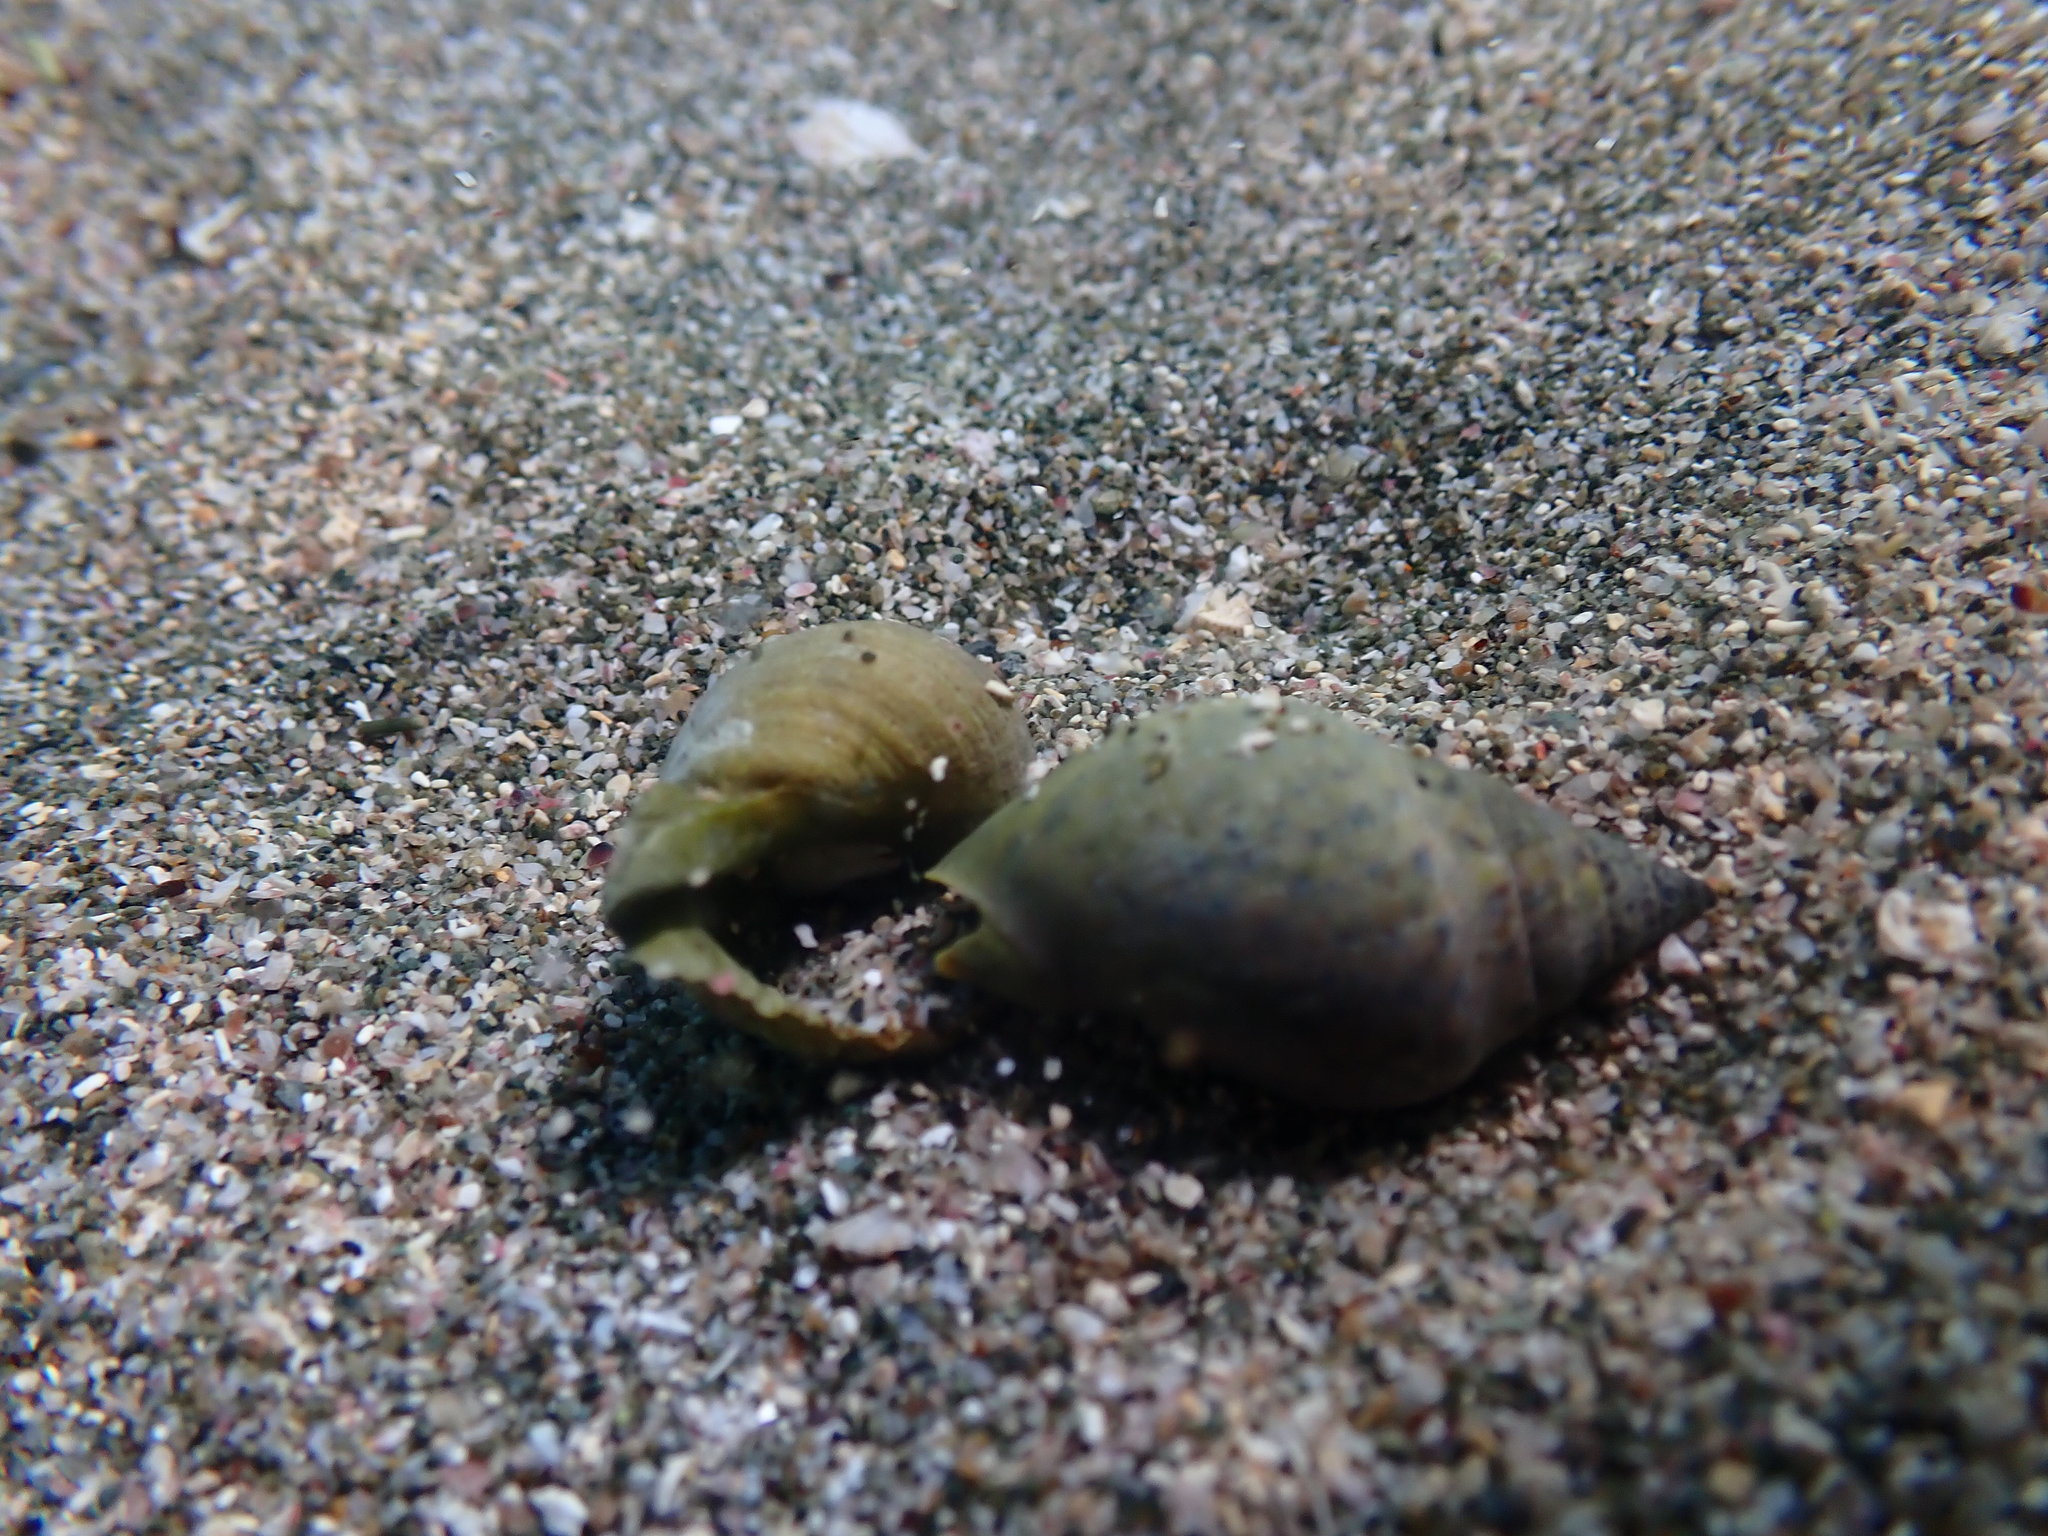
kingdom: Animalia
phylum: Mollusca
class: Gastropoda
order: Neogastropoda
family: Cominellidae
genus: Cominella
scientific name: Cominella maculosa
